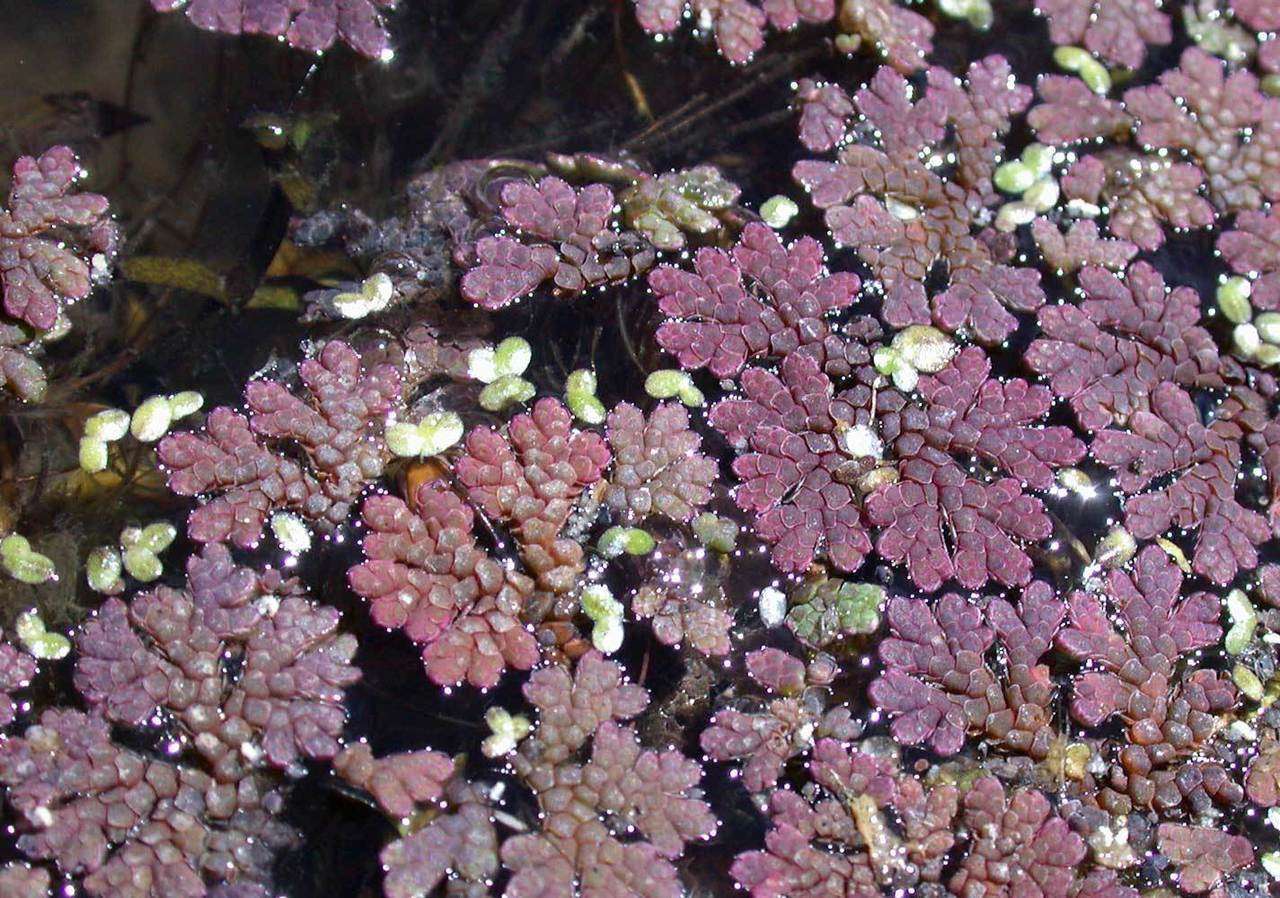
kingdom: Plantae
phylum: Tracheophyta
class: Polypodiopsida
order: Salviniales
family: Salviniaceae
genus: Azolla
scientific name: Azolla rubra
